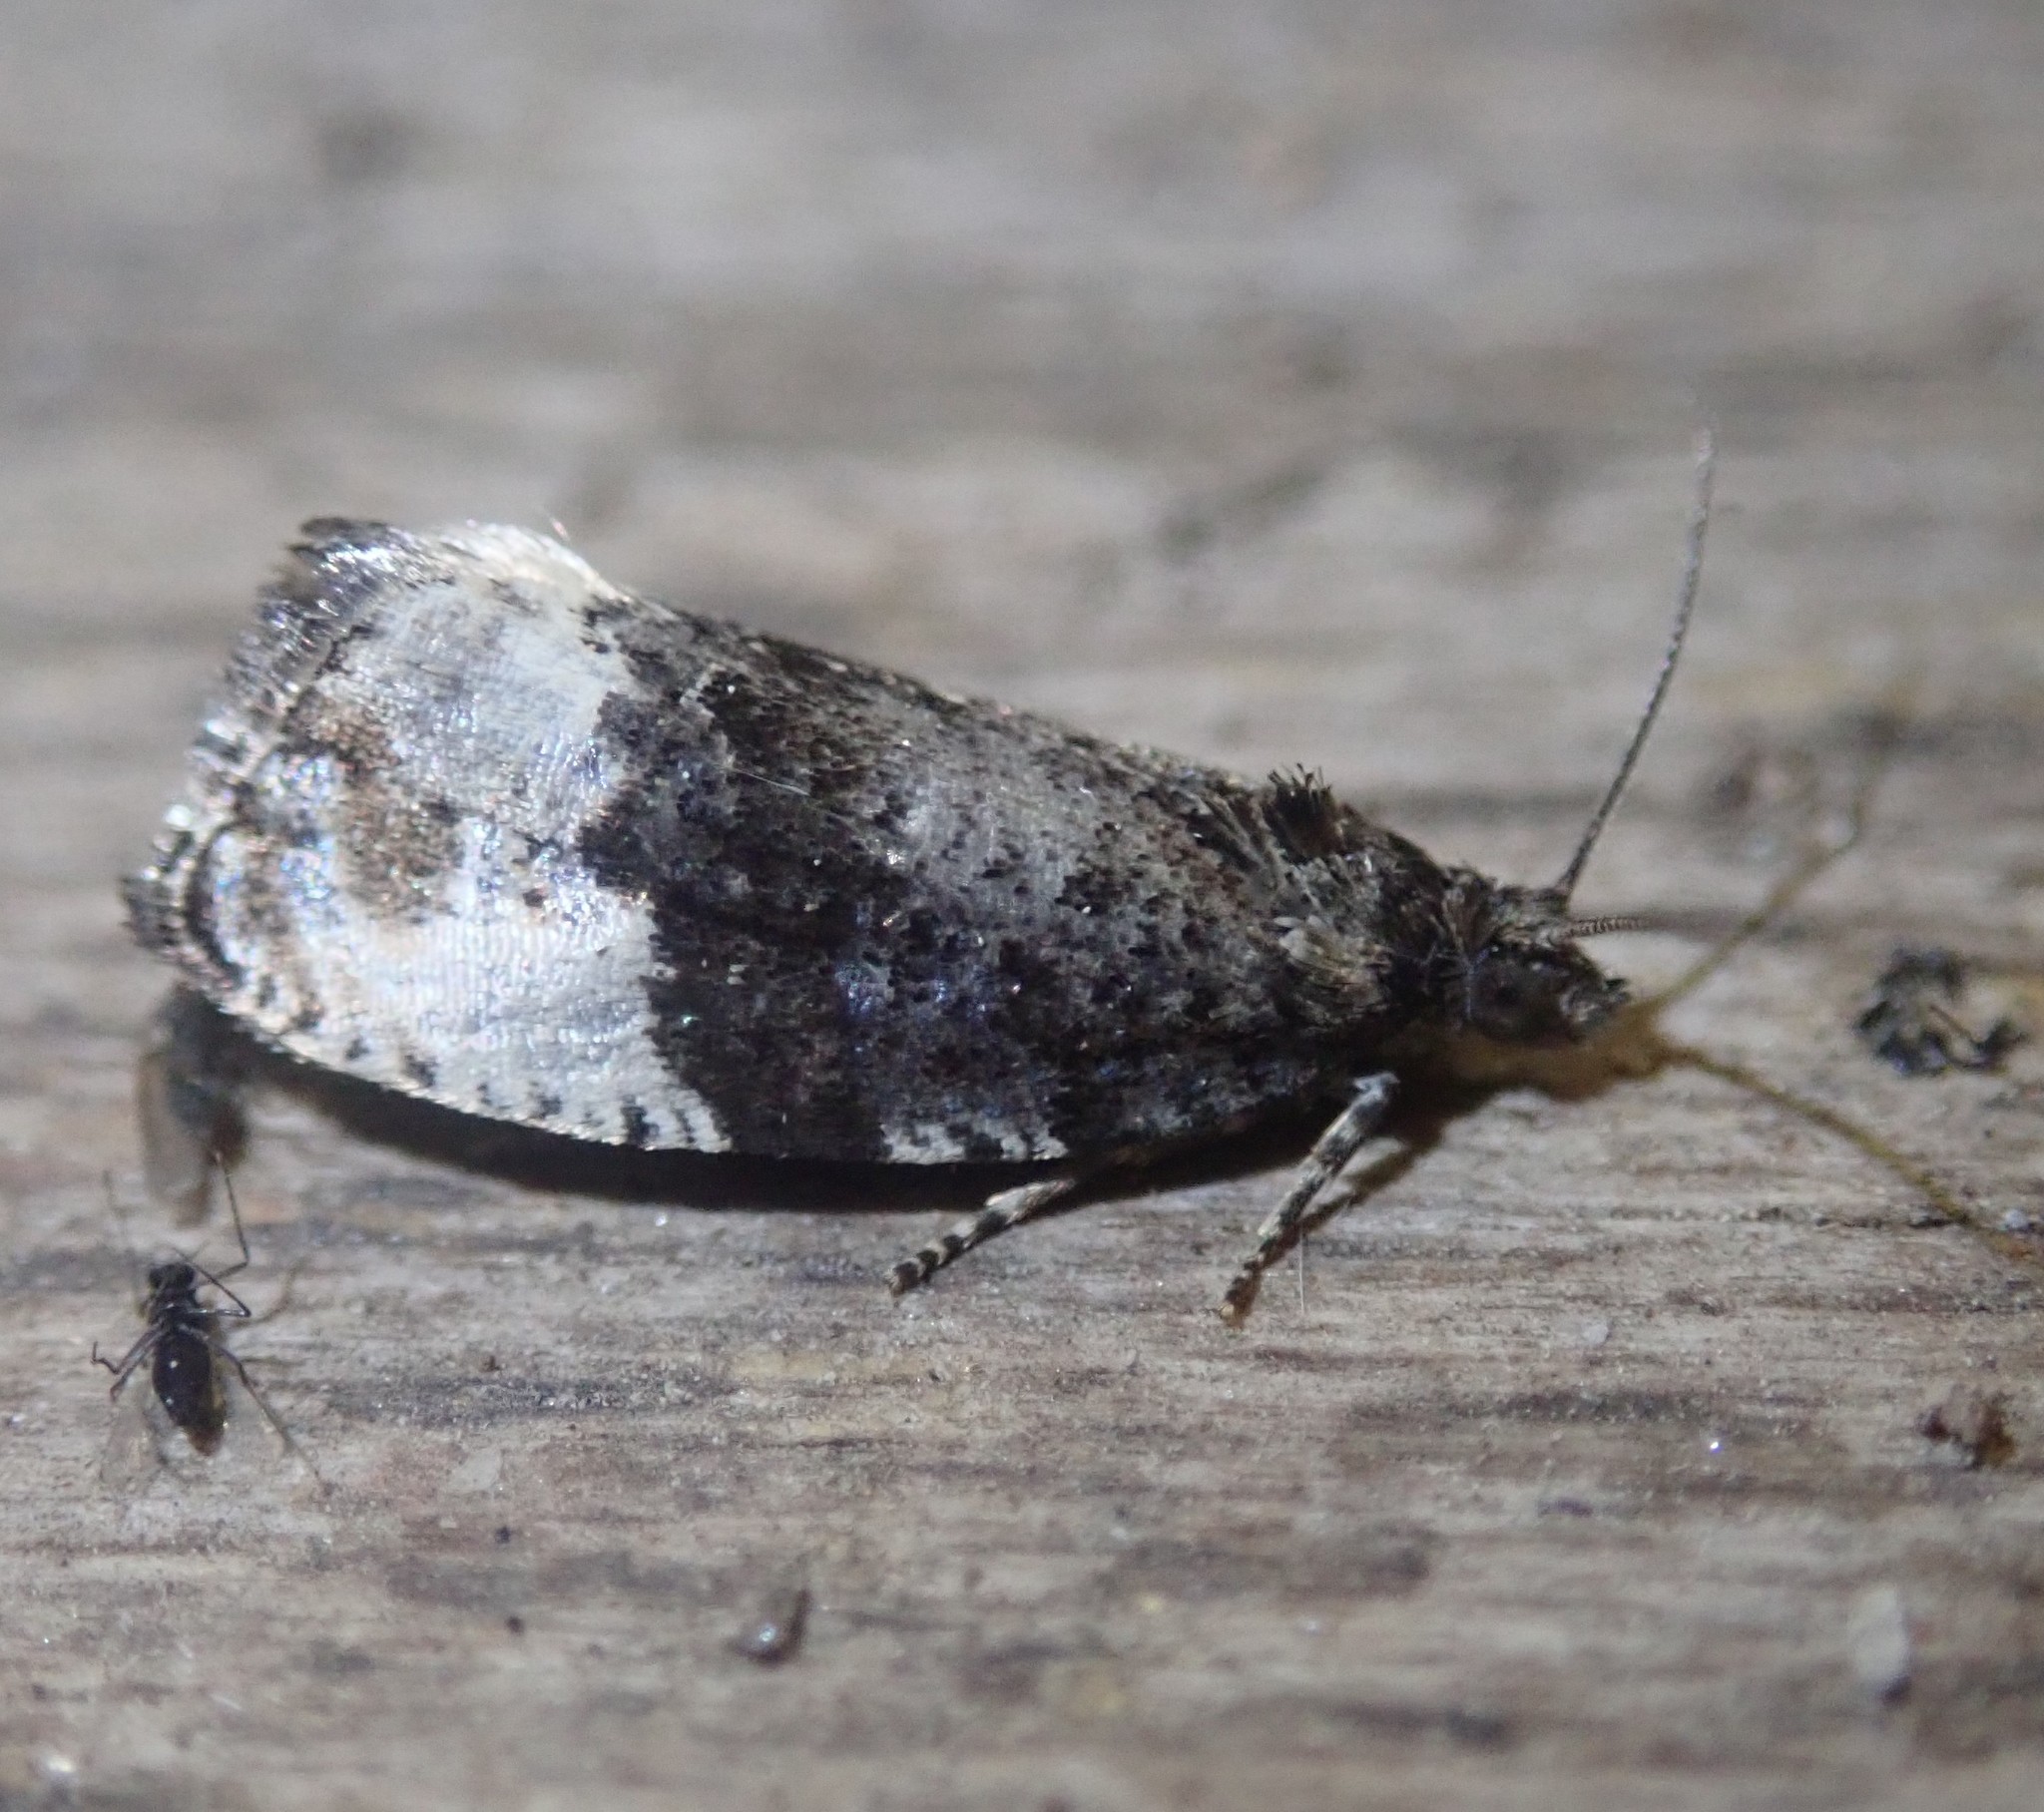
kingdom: Animalia
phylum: Arthropoda
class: Insecta
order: Lepidoptera
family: Tortricidae
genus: Hedya
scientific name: Hedya pruniana
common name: Plum tortrix
